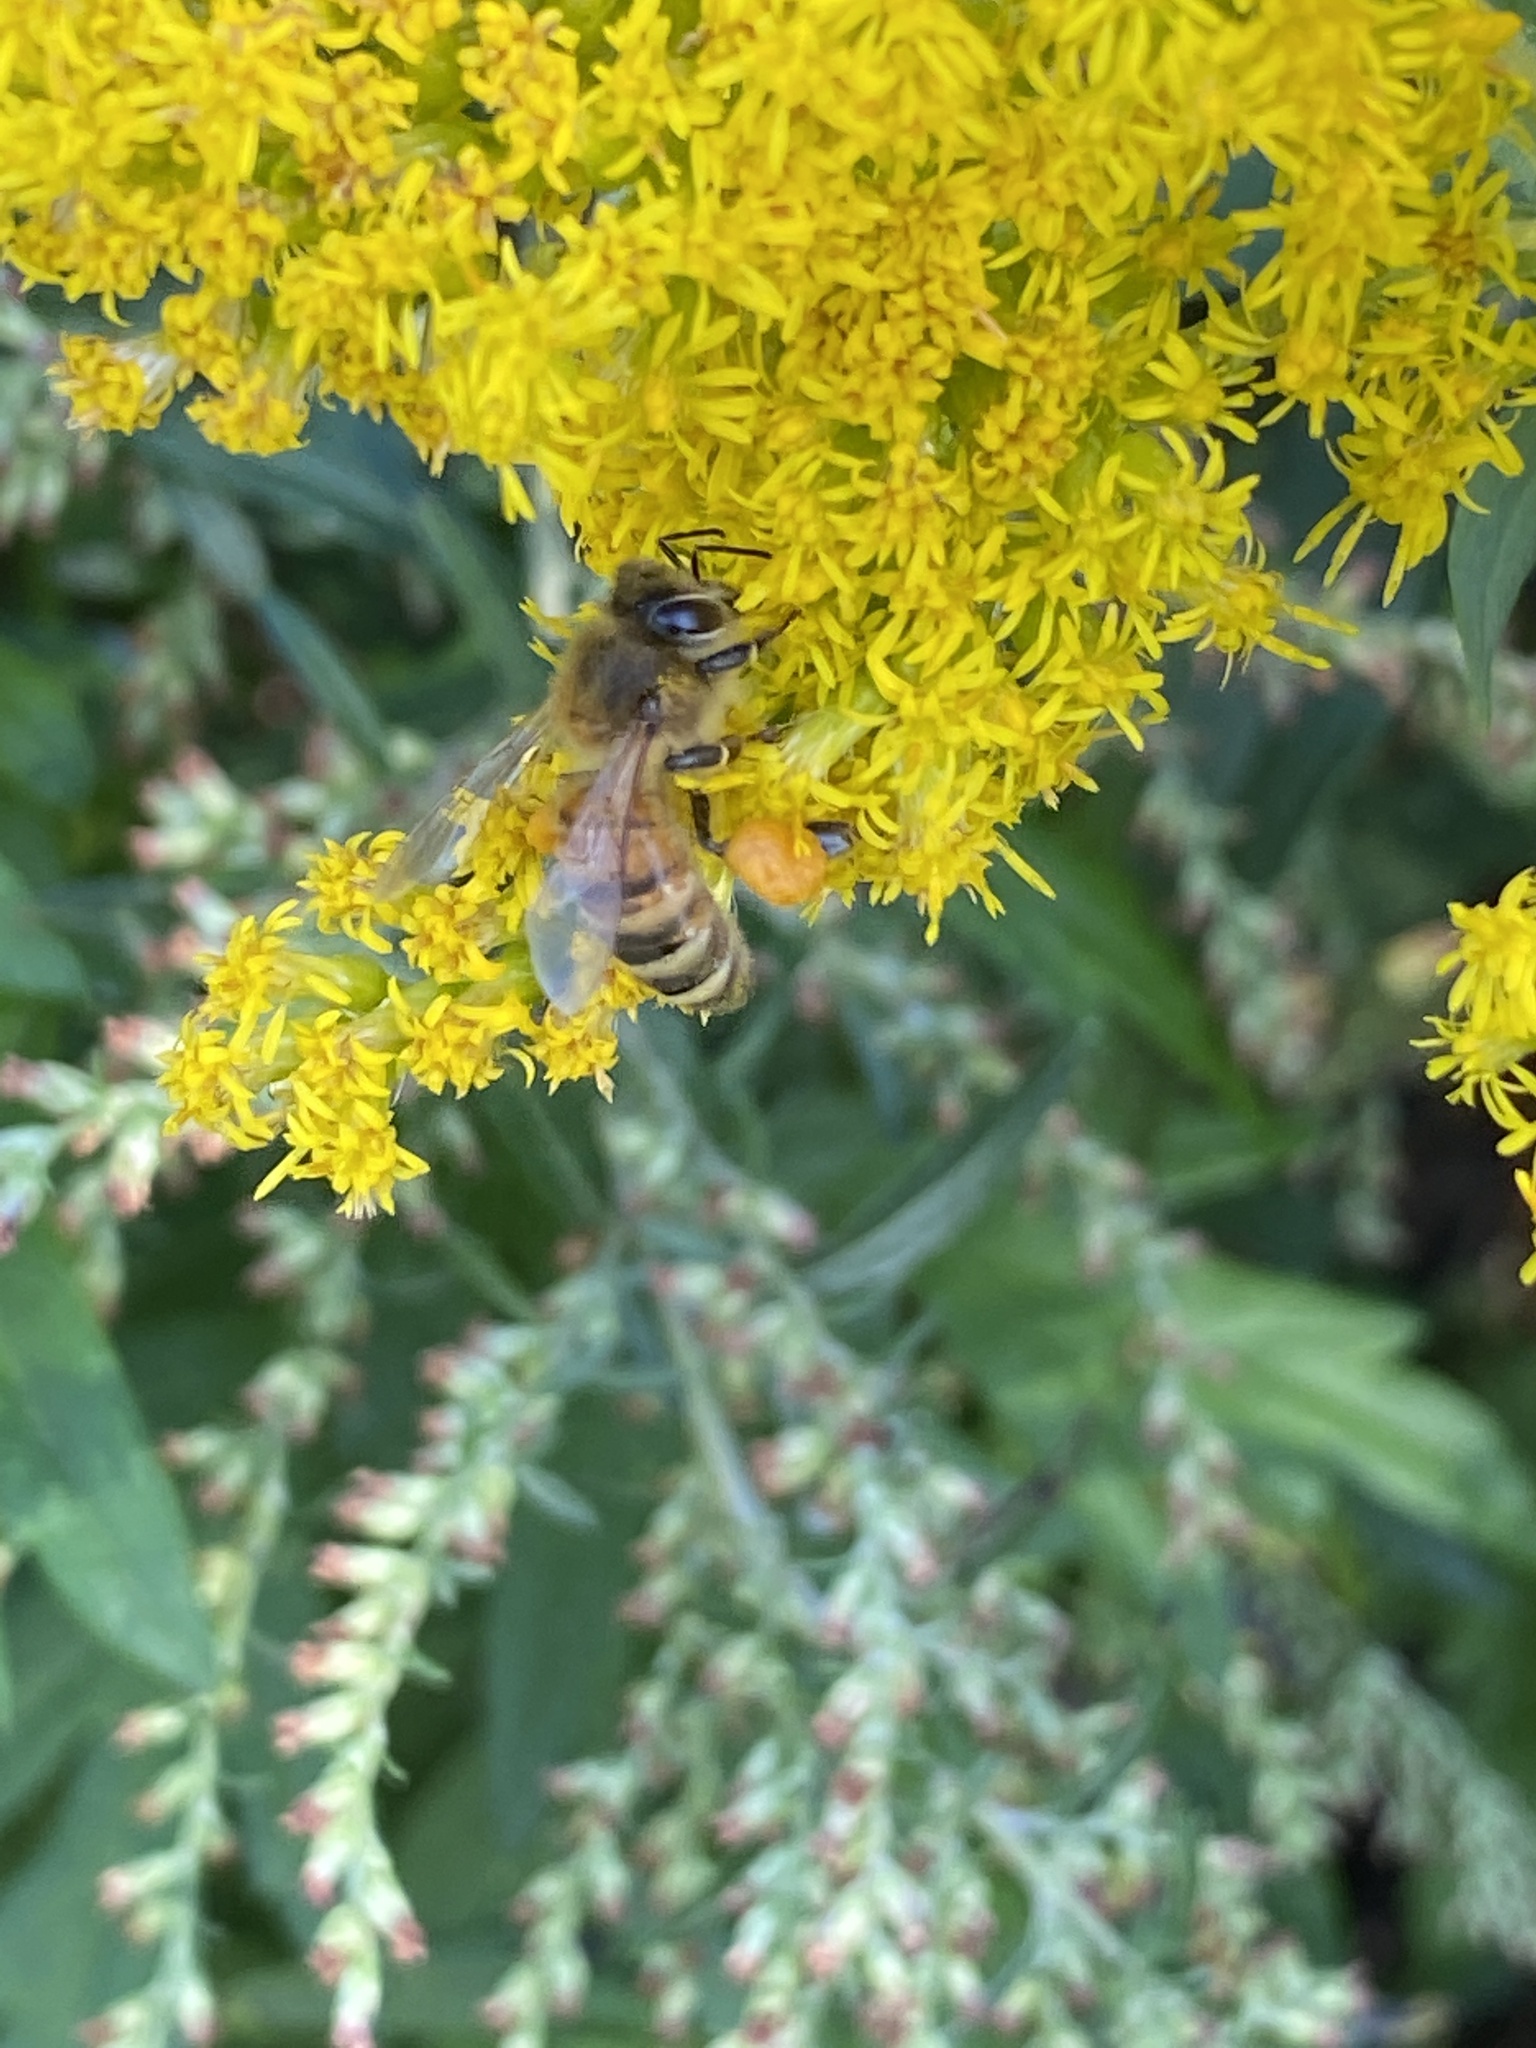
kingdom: Animalia
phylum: Arthropoda
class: Insecta
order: Hymenoptera
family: Apidae
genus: Apis
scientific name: Apis mellifera
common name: Honey bee
